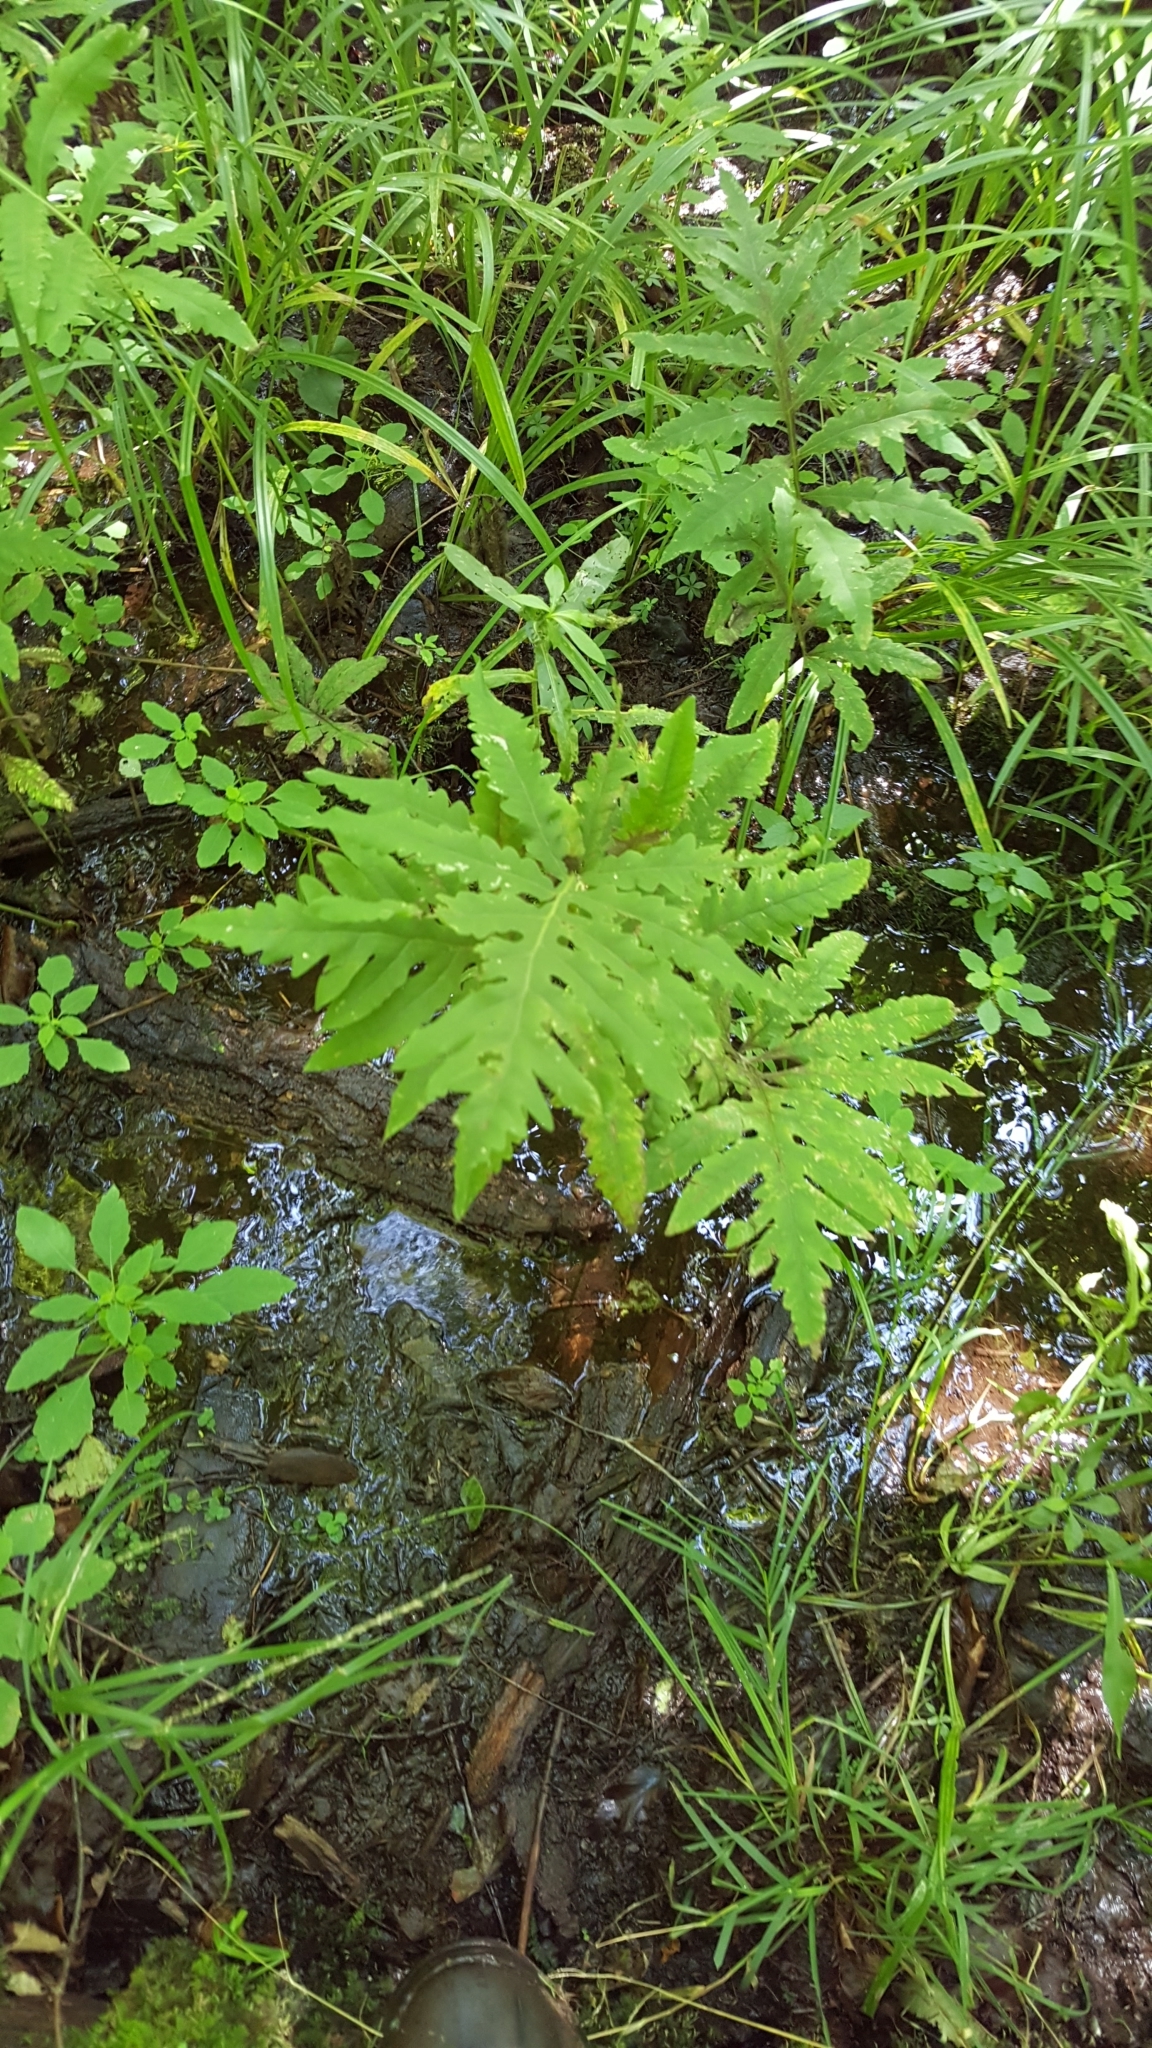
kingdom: Plantae
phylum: Tracheophyta
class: Polypodiopsida
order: Polypodiales
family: Onocleaceae
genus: Onoclea
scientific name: Onoclea sensibilis
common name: Sensitive fern
